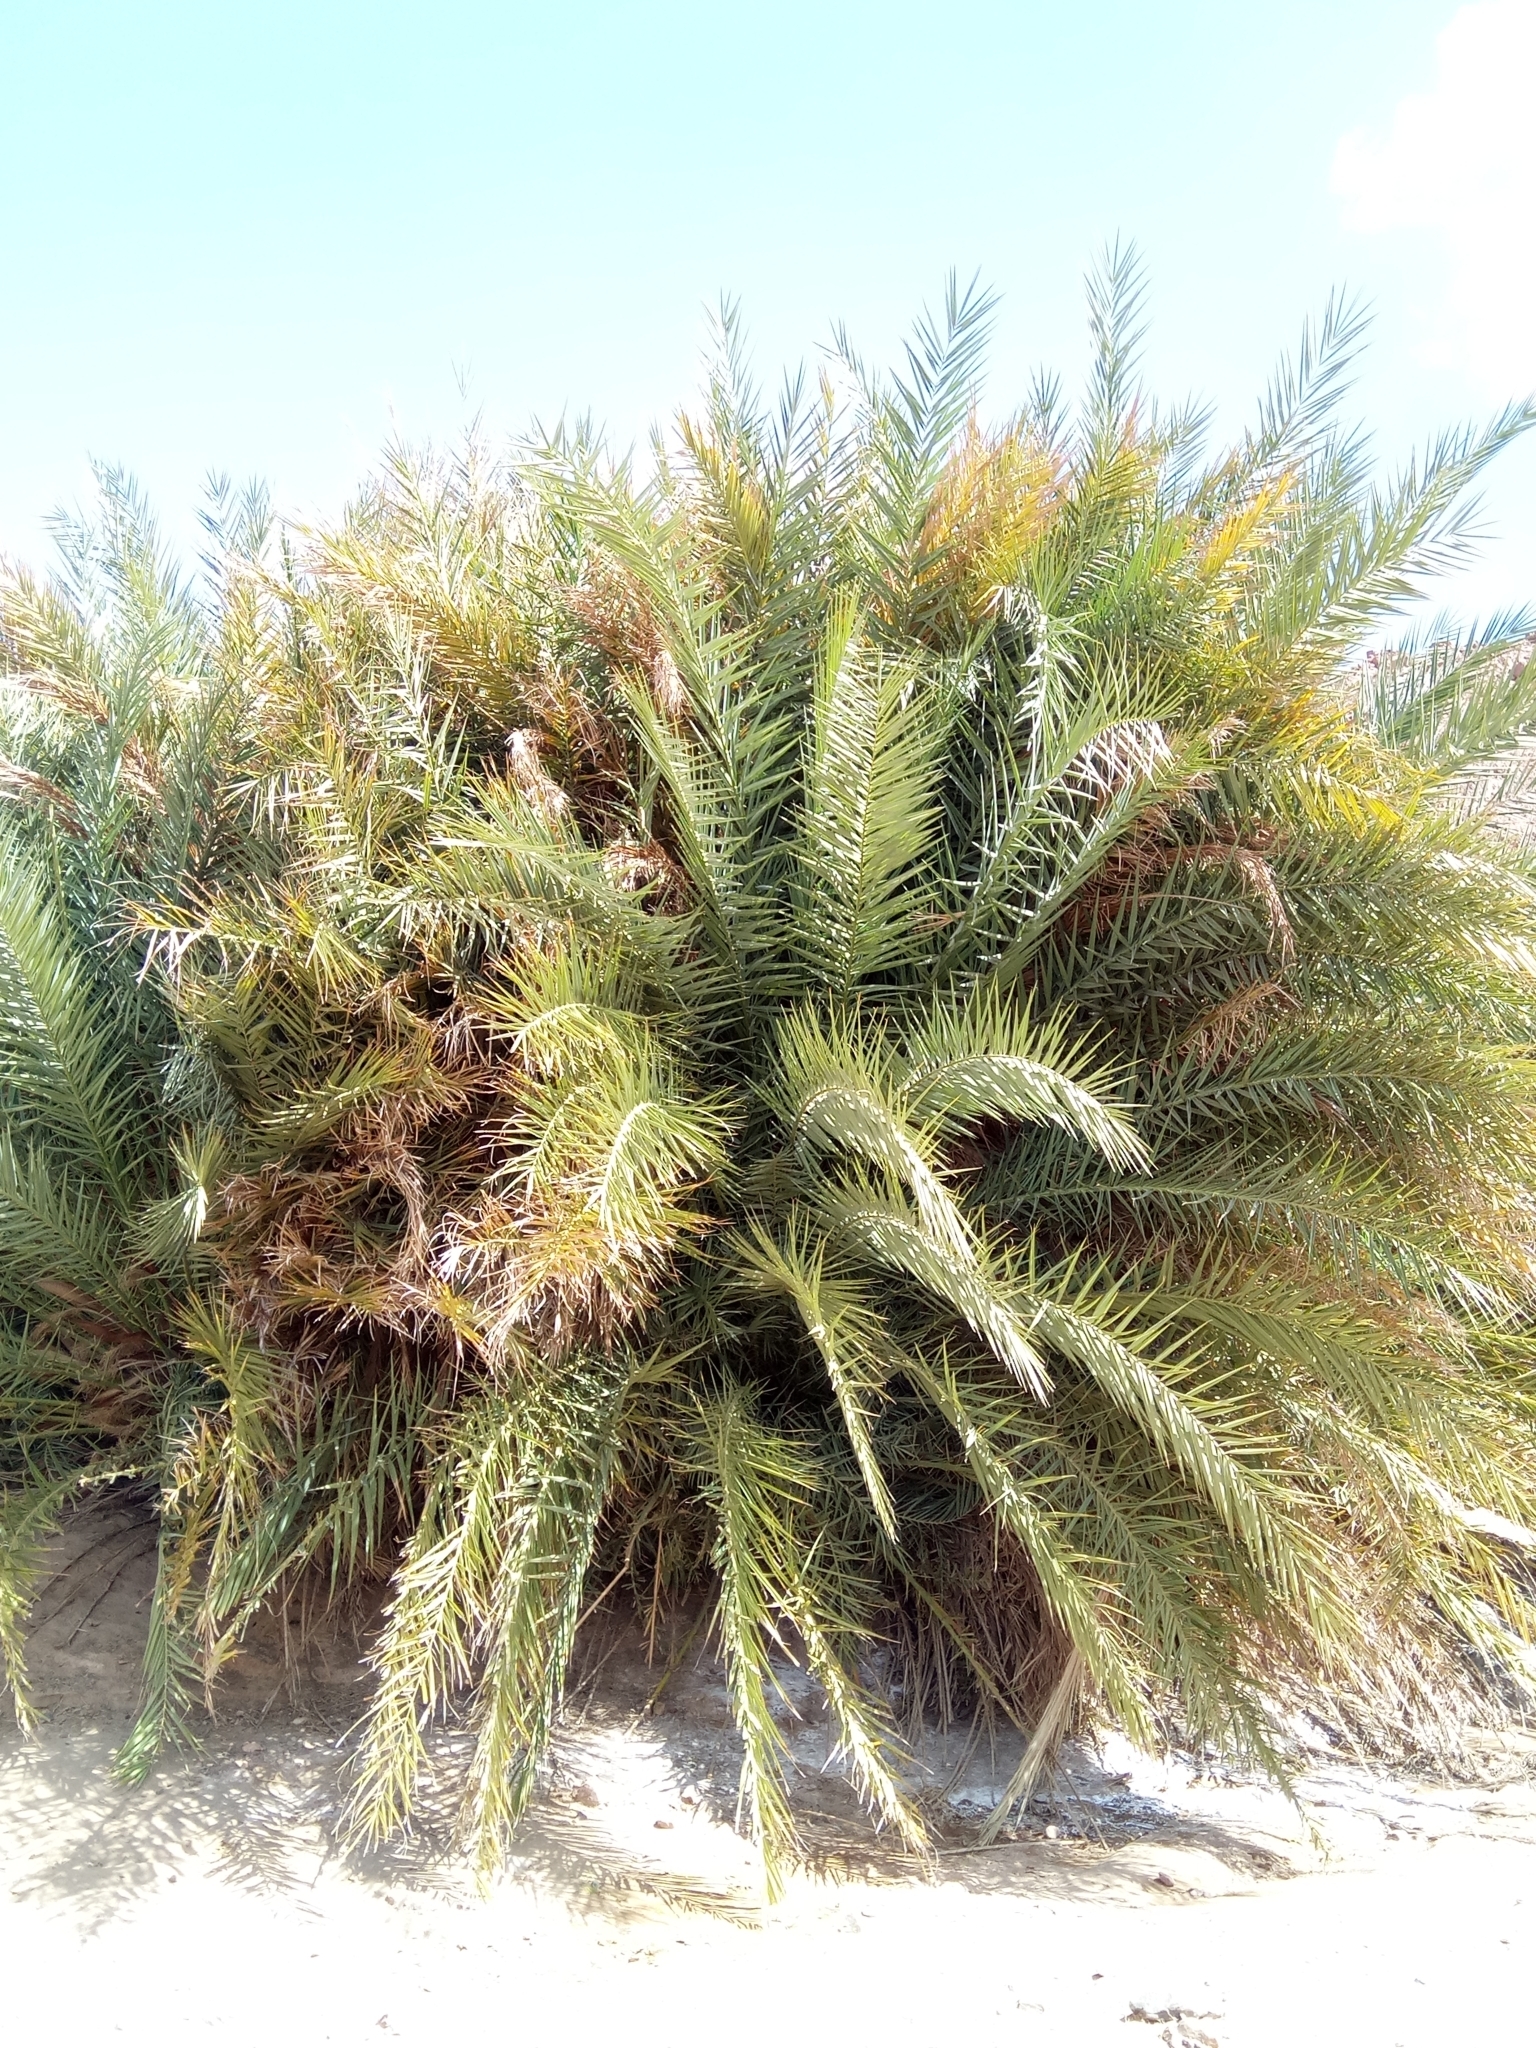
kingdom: Plantae
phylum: Tracheophyta
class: Liliopsida
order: Arecales
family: Arecaceae
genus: Phoenix
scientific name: Phoenix dactylifera
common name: Date palm
